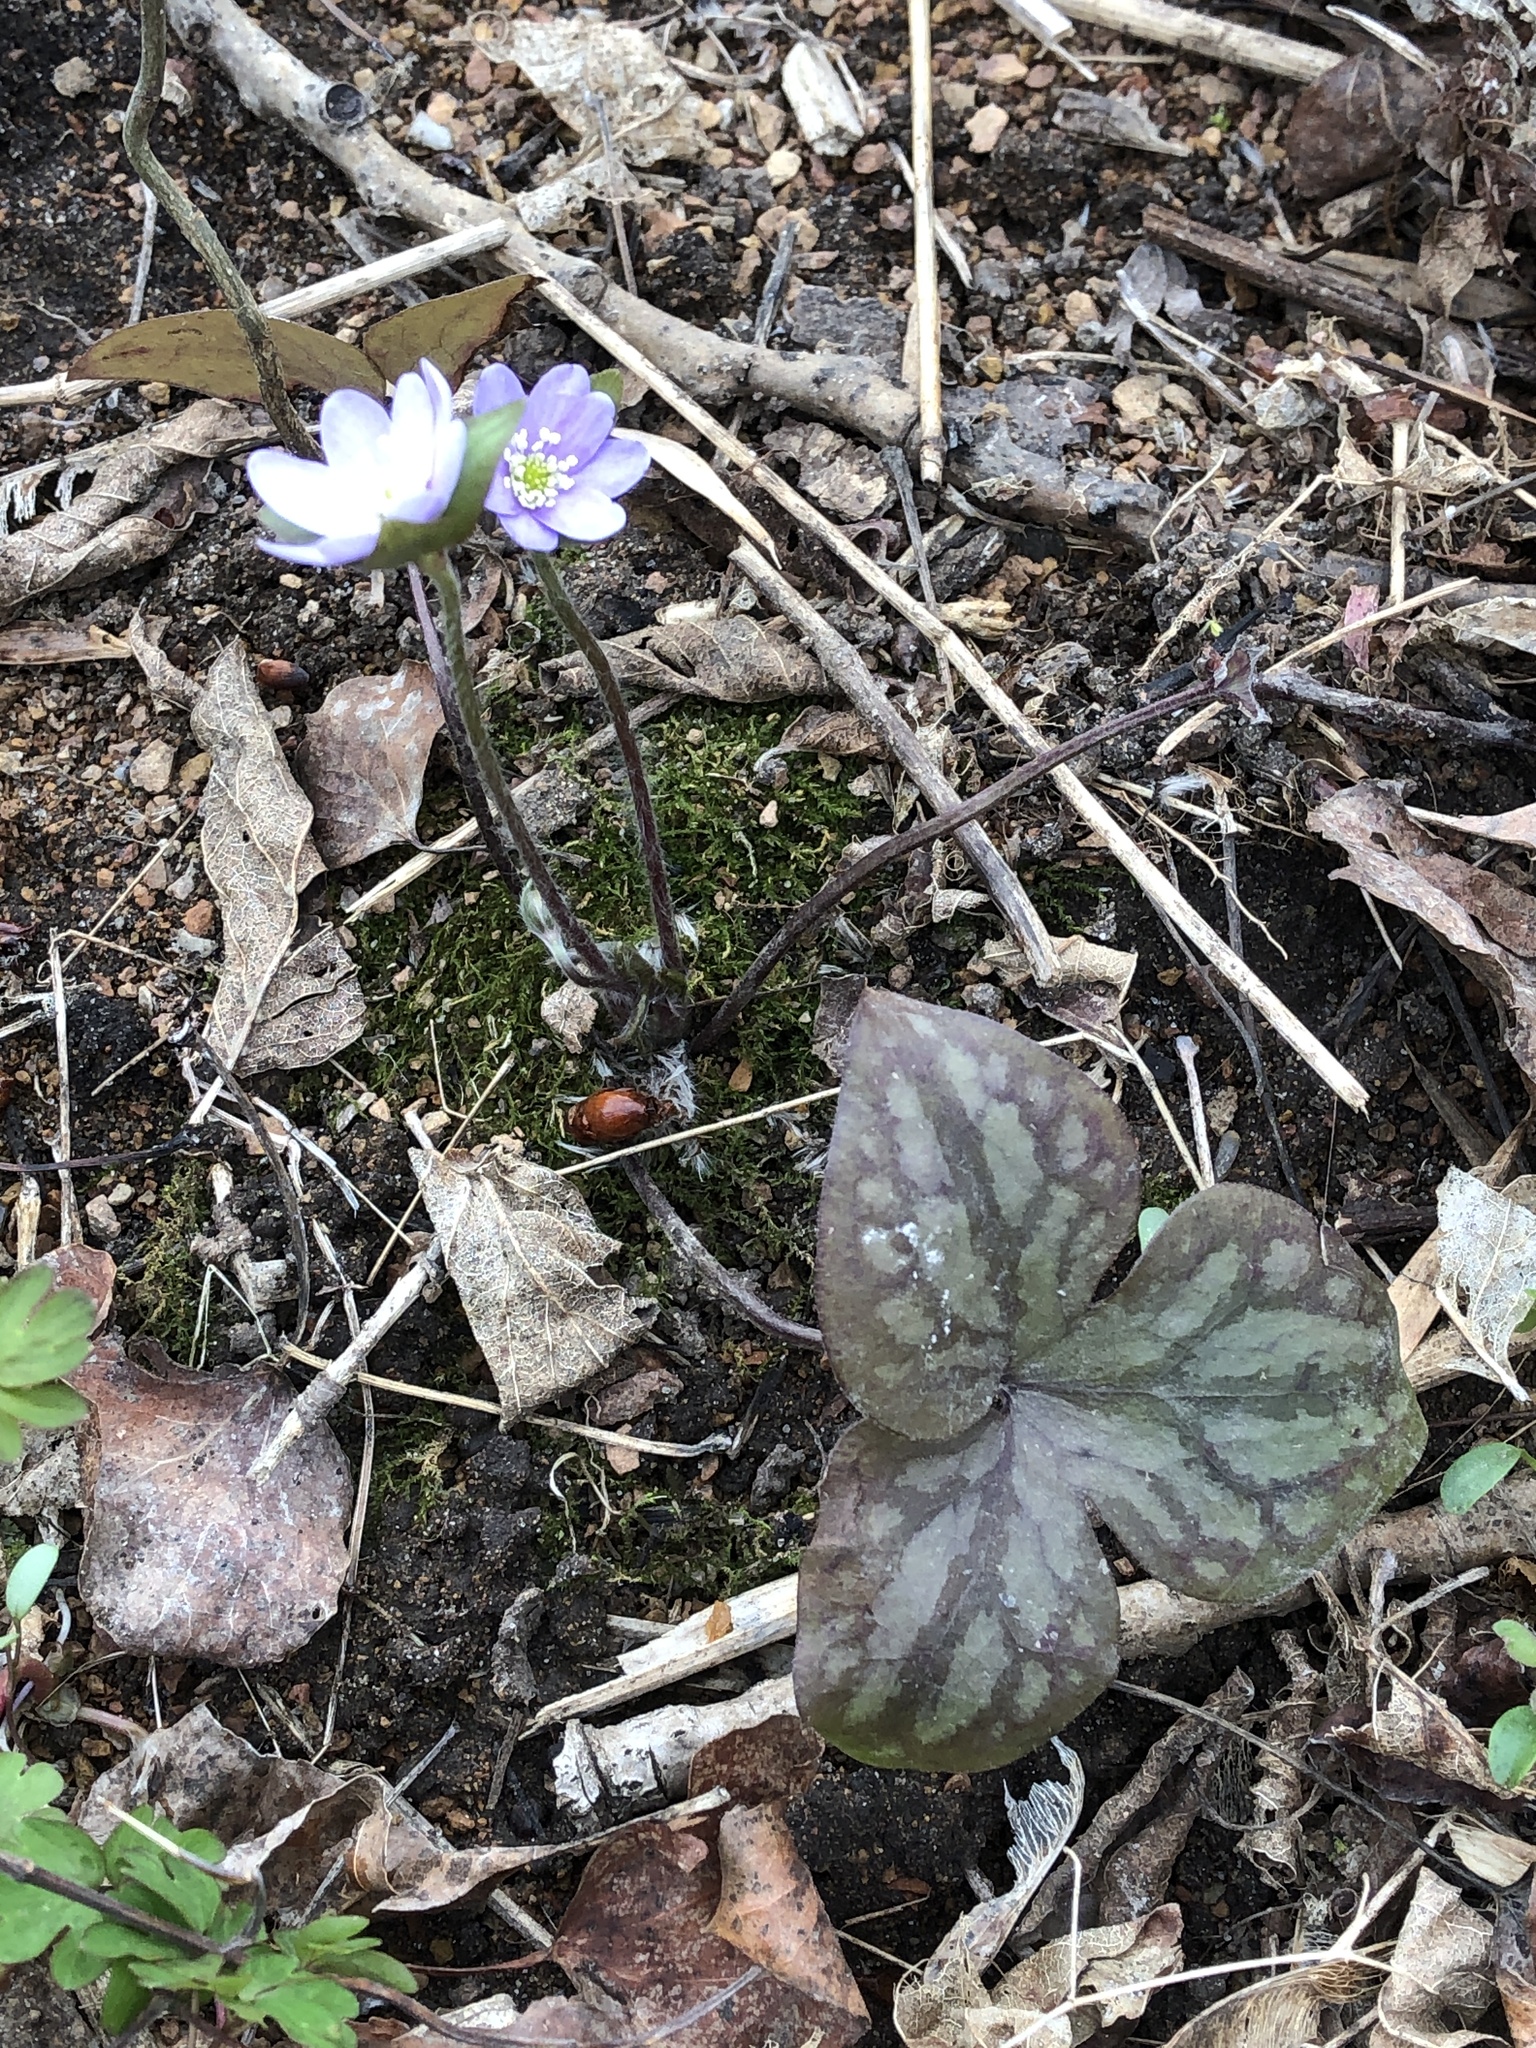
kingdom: Plantae
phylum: Tracheophyta
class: Magnoliopsida
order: Ranunculales
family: Ranunculaceae
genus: Hepatica
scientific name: Hepatica acutiloba
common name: Sharp-lobed hepatica
